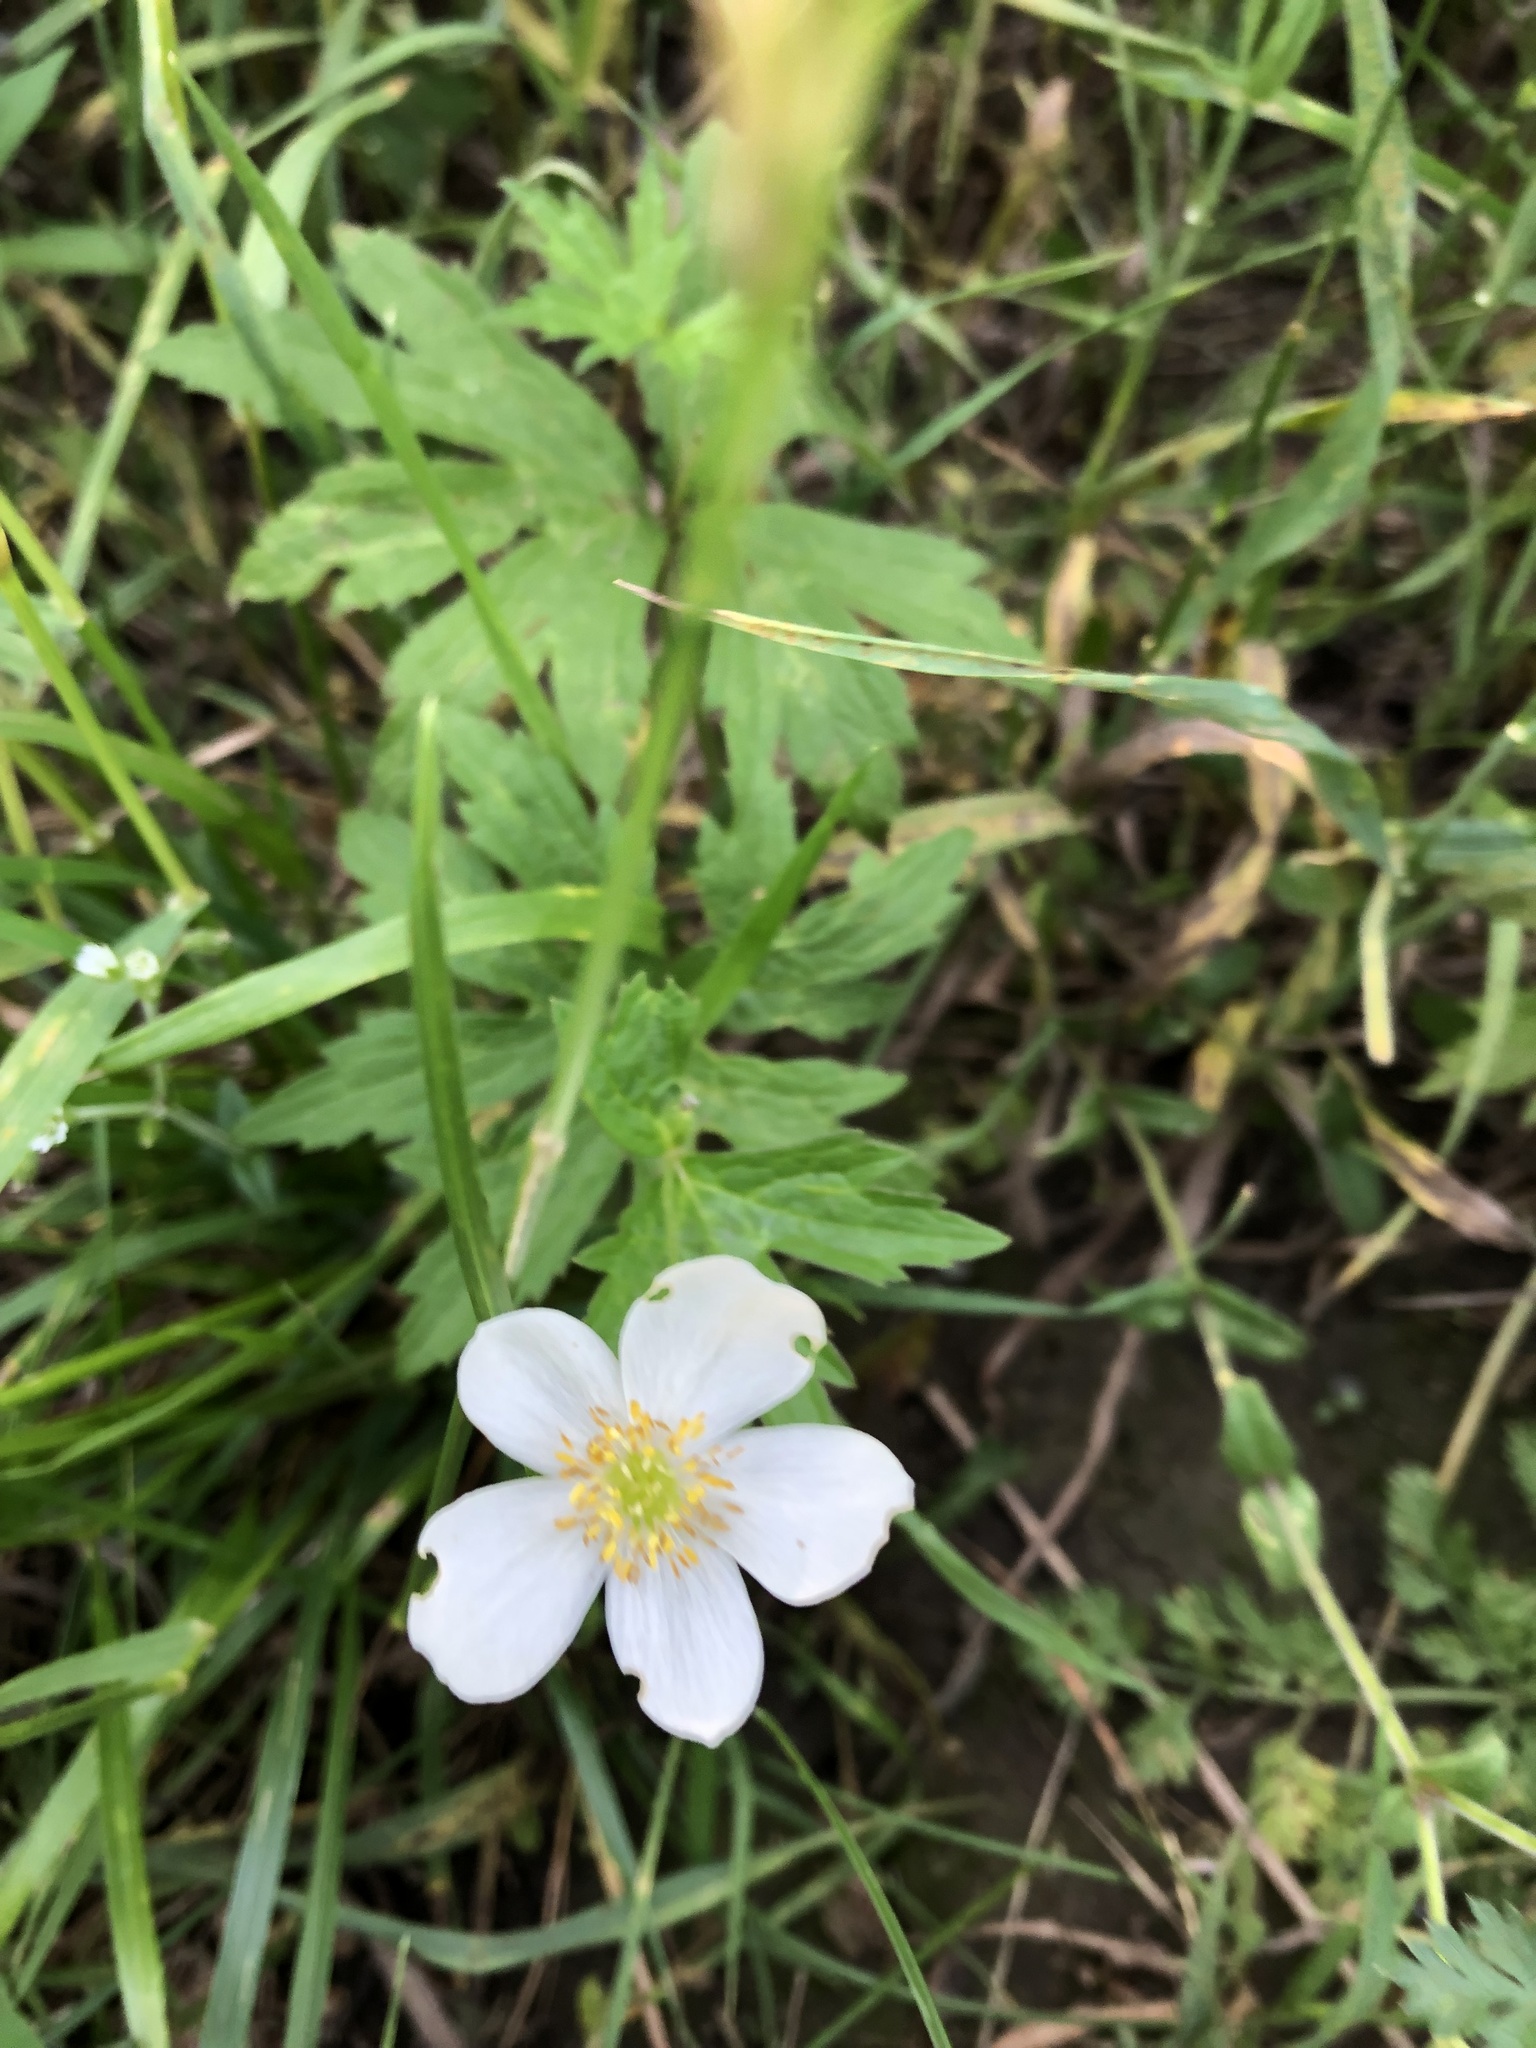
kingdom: Plantae
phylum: Tracheophyta
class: Magnoliopsida
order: Ranunculales
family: Ranunculaceae
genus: Anemonastrum
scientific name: Anemonastrum canadense
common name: Canada anemone
